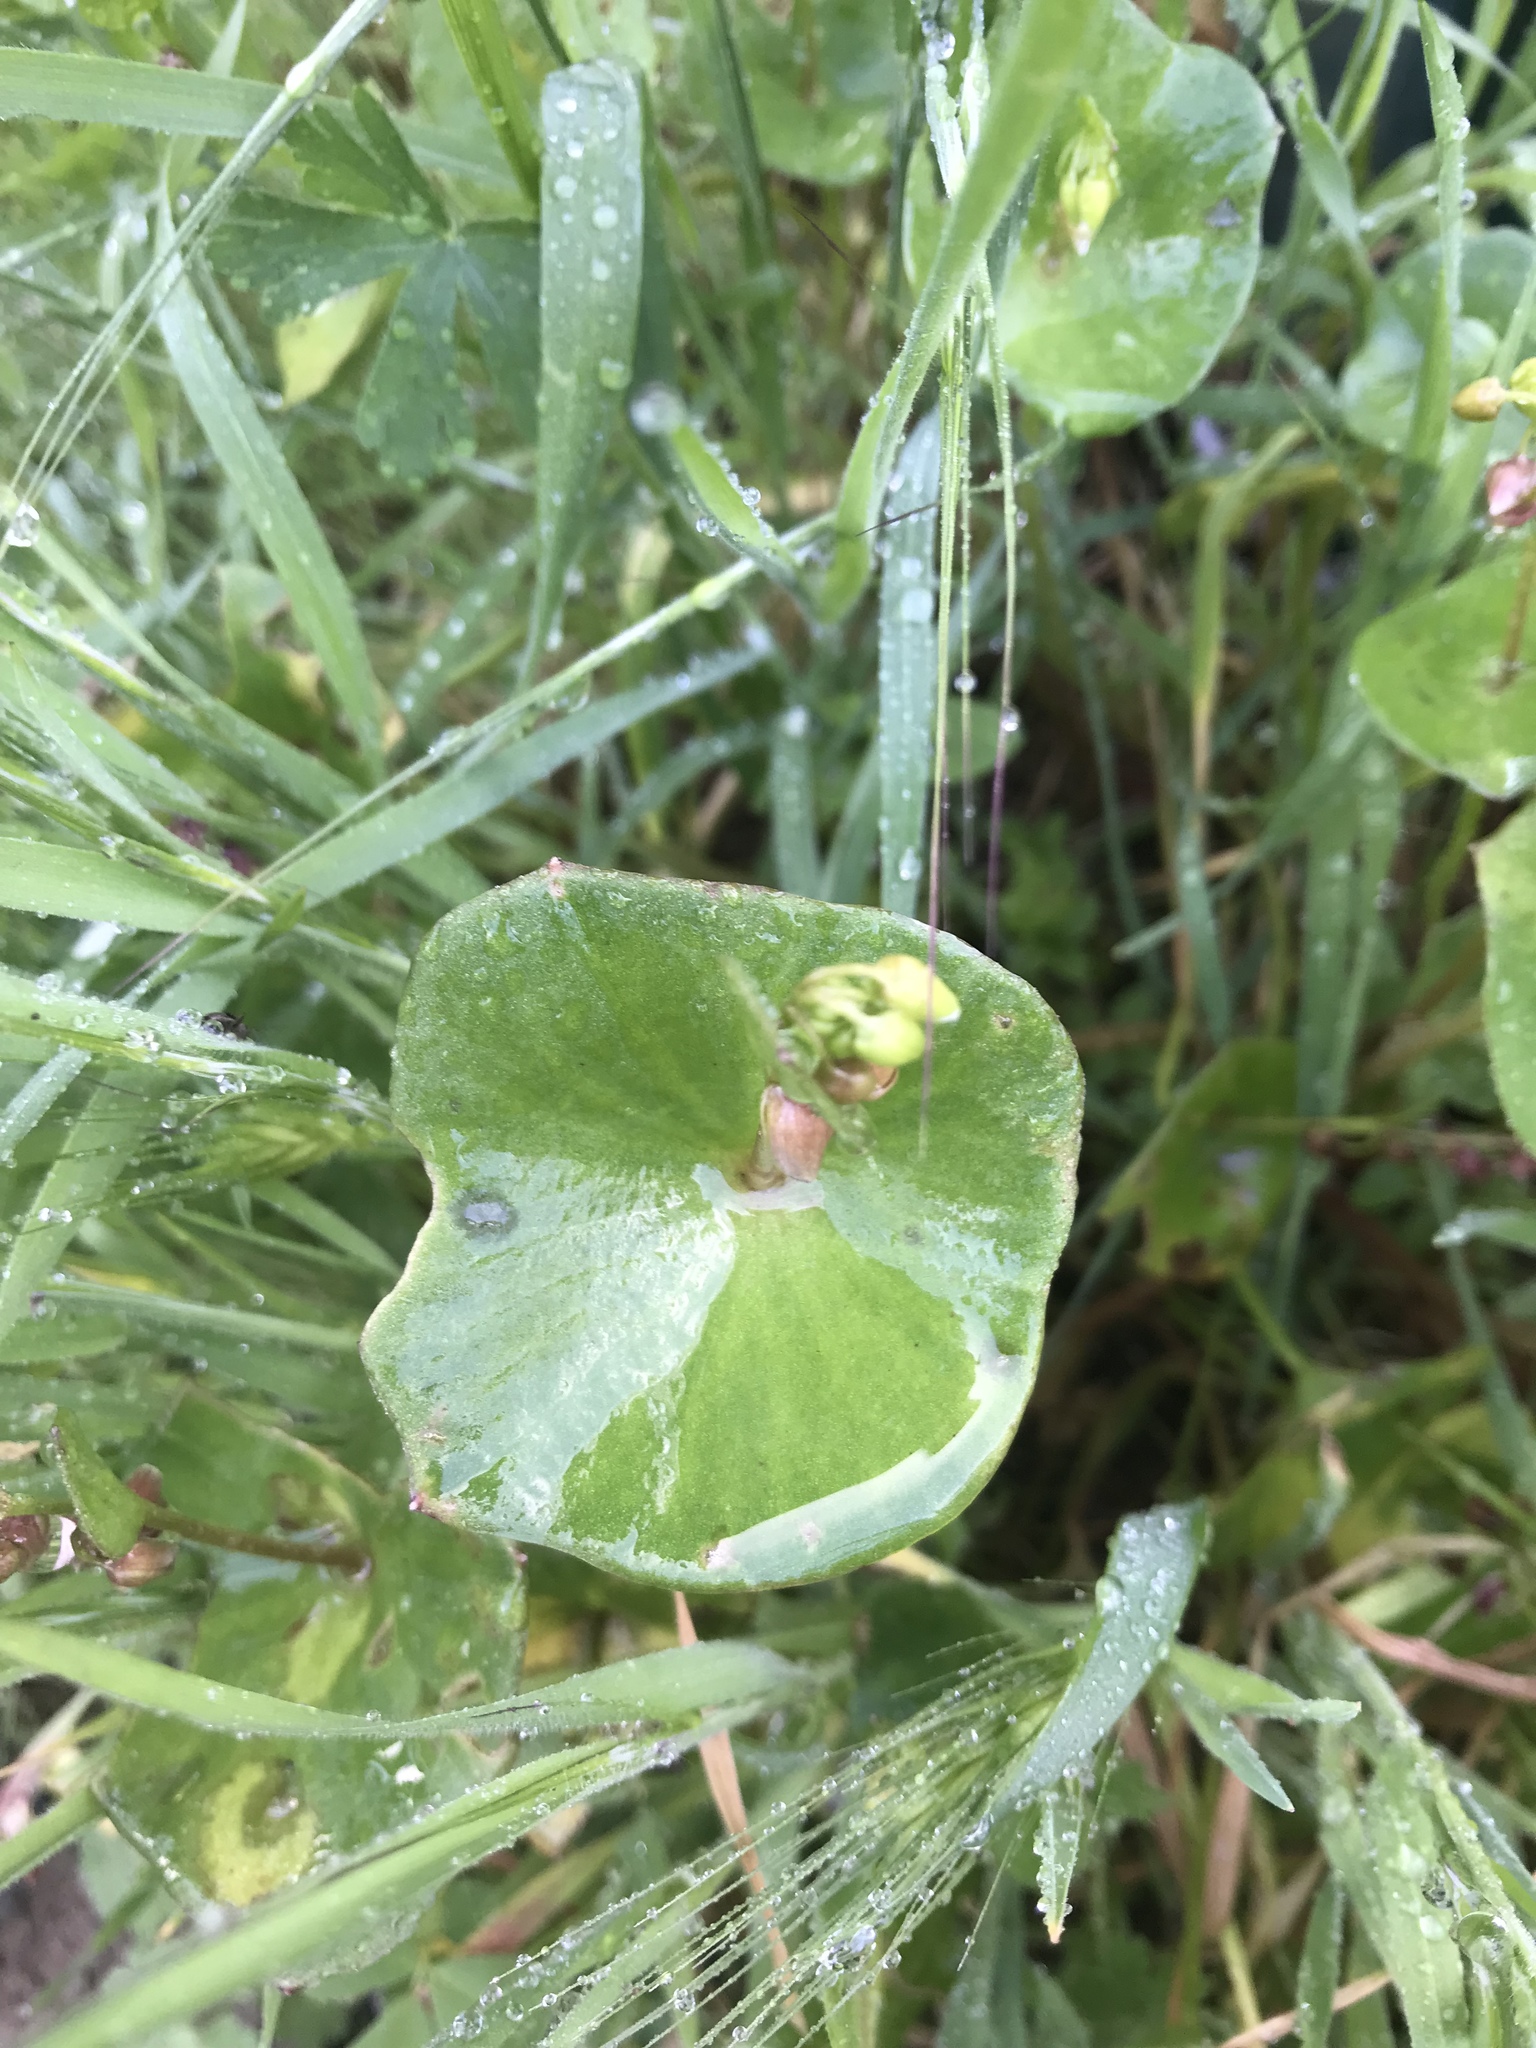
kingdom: Plantae
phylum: Tracheophyta
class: Magnoliopsida
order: Caryophyllales
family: Montiaceae
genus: Claytonia
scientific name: Claytonia perfoliata
